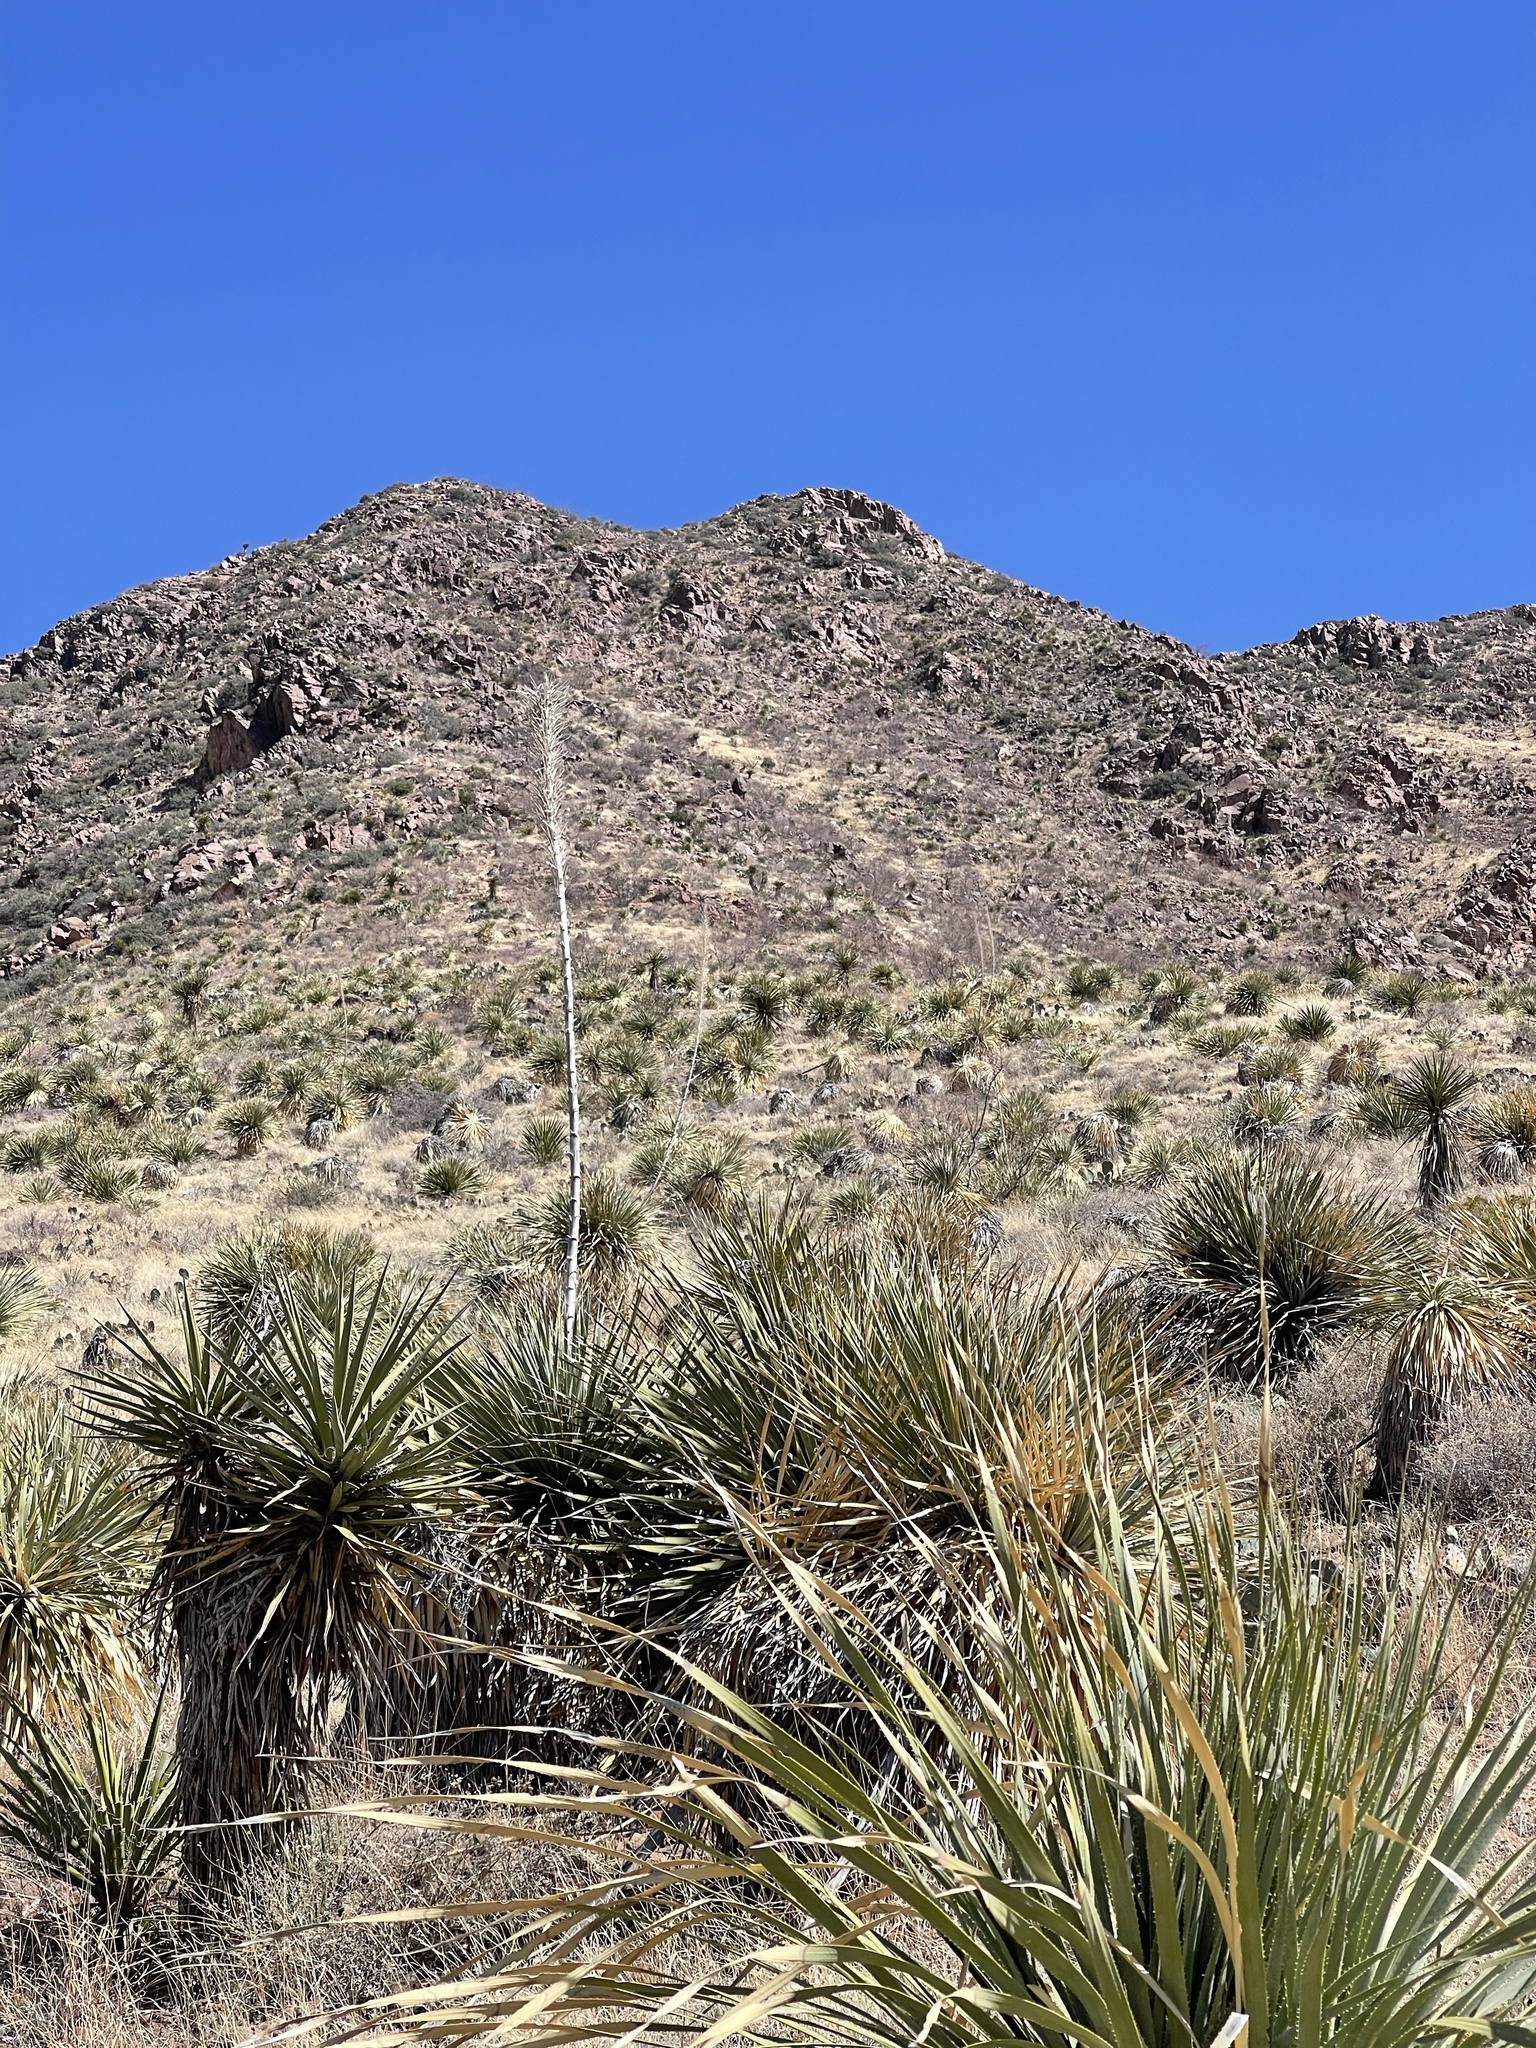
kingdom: Plantae
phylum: Tracheophyta
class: Liliopsida
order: Asparagales
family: Asparagaceae
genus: Dasylirion
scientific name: Dasylirion wheeleri
